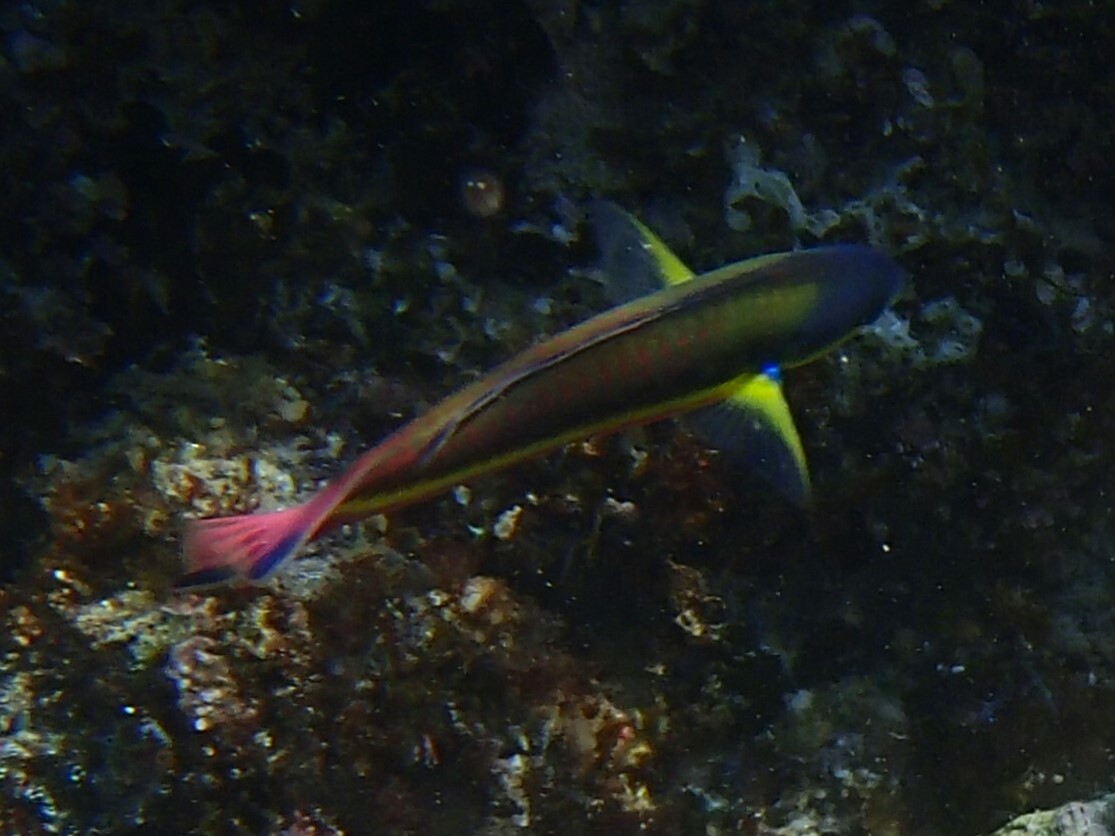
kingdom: Animalia
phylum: Chordata
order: Perciformes
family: Labridae
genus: Thalassoma
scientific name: Thalassoma lucasanum
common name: Cortez rainbow wrasse
